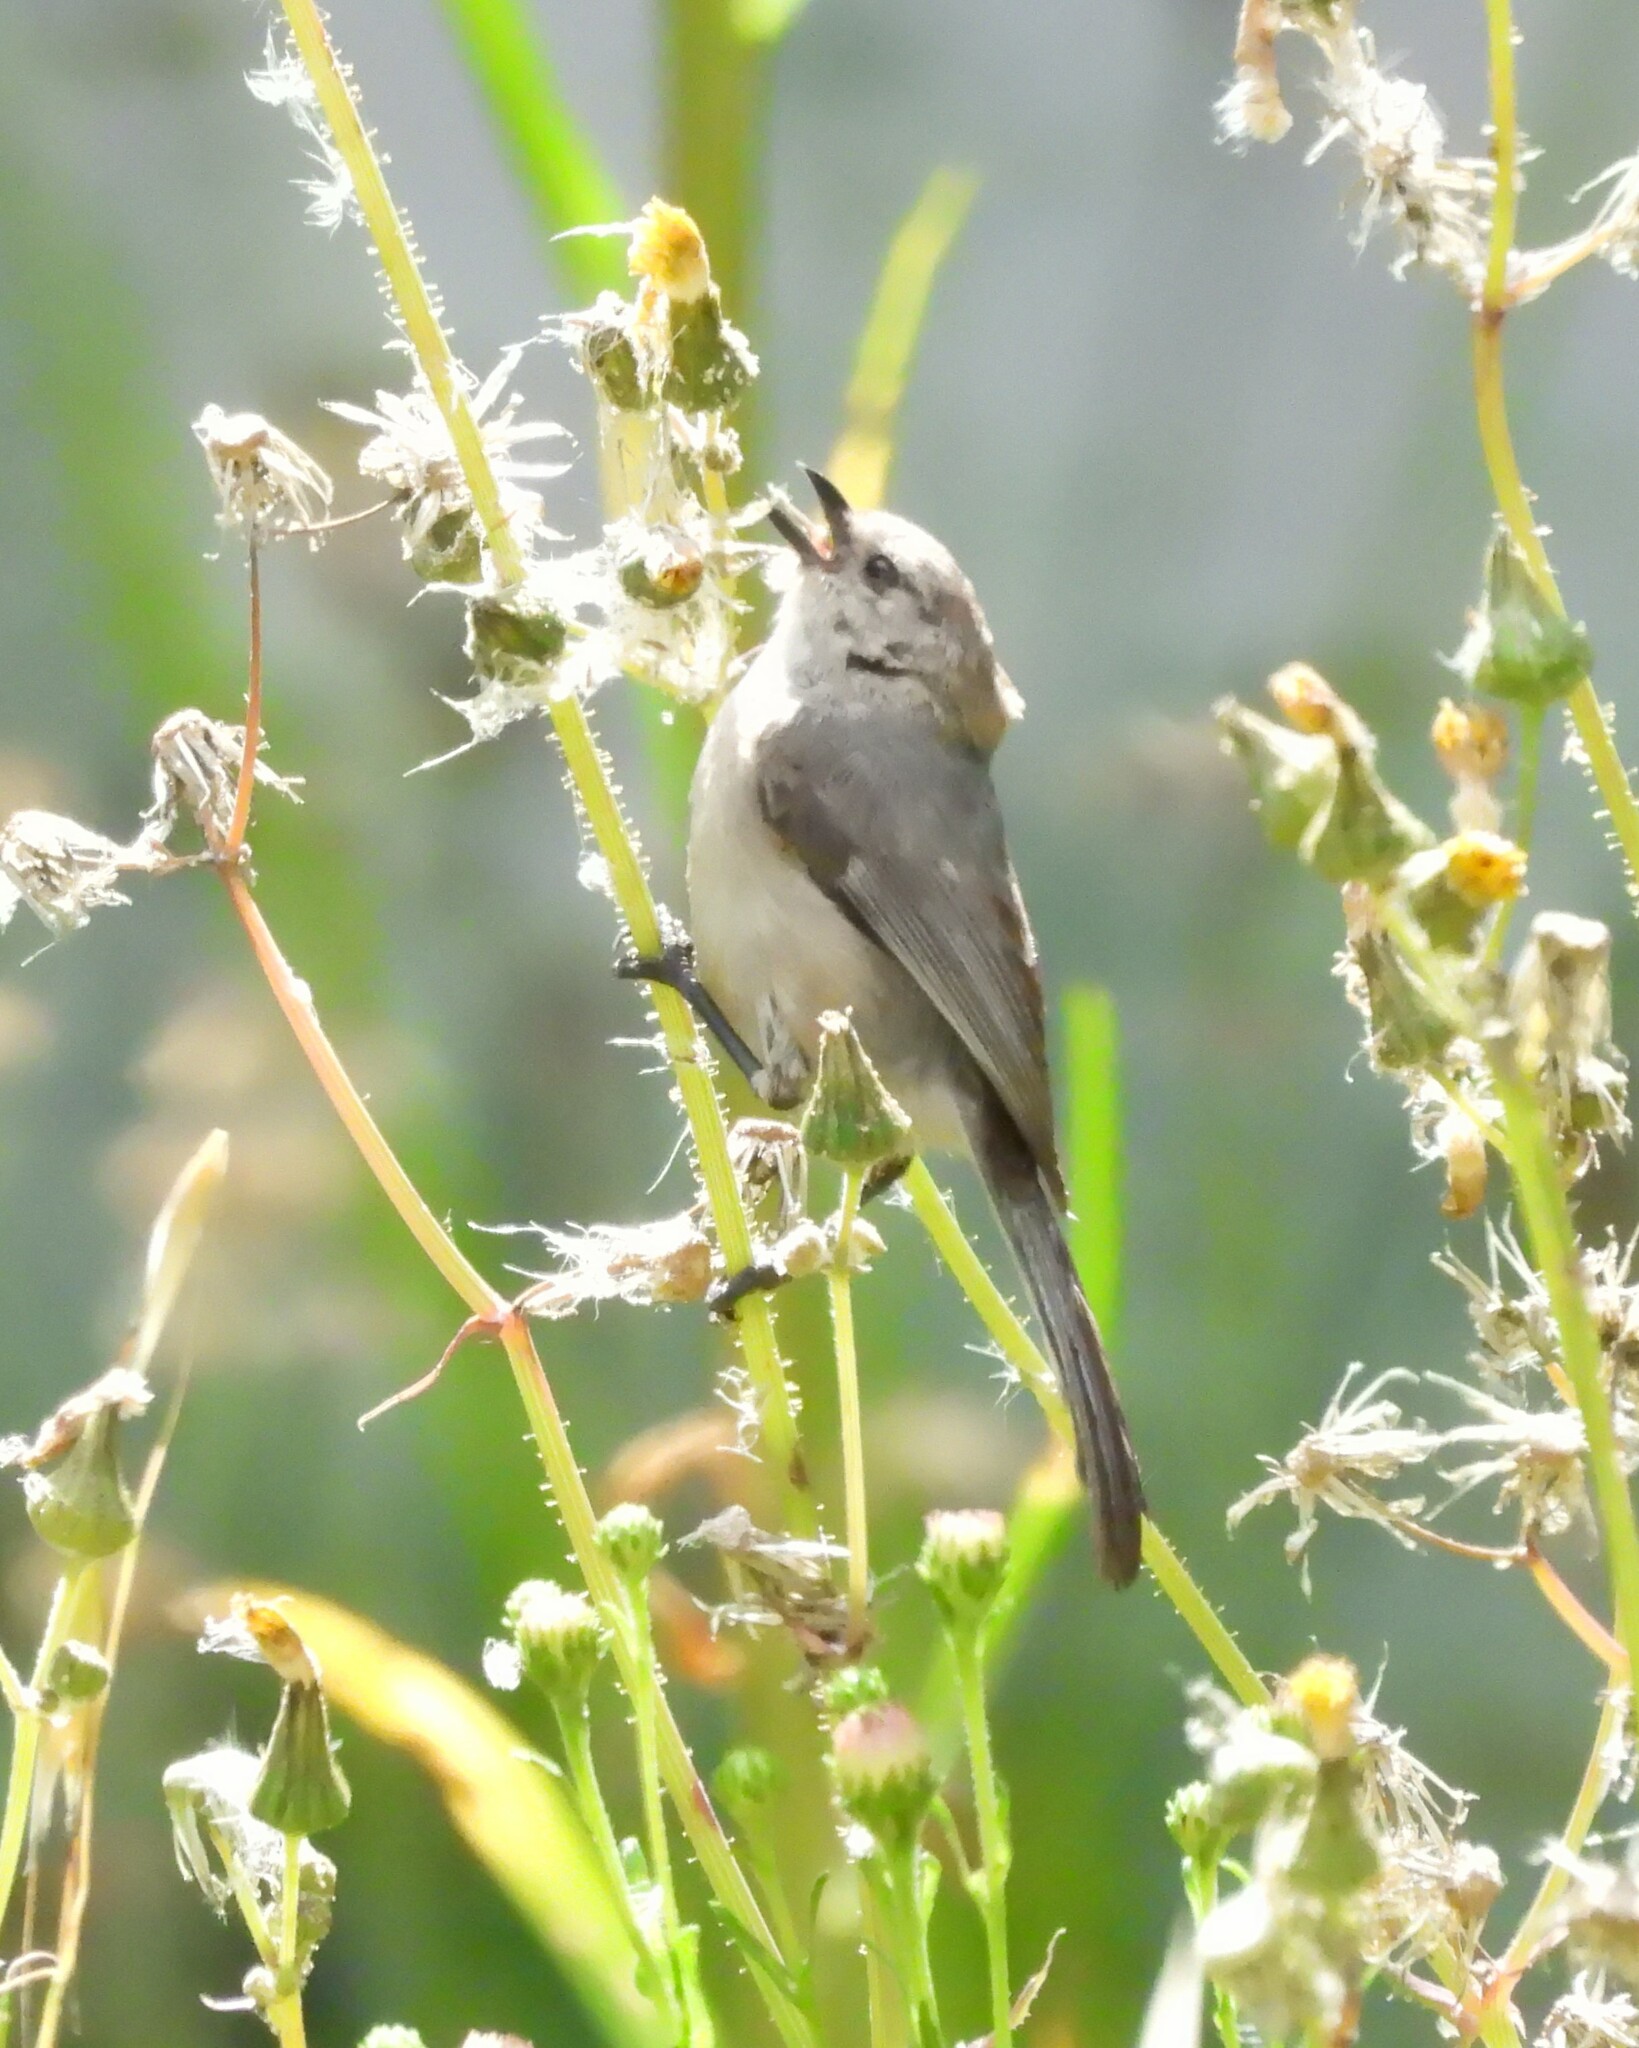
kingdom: Animalia
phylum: Chordata
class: Aves
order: Passeriformes
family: Aegithalidae
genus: Psaltriparus
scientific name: Psaltriparus minimus
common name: American bushtit
